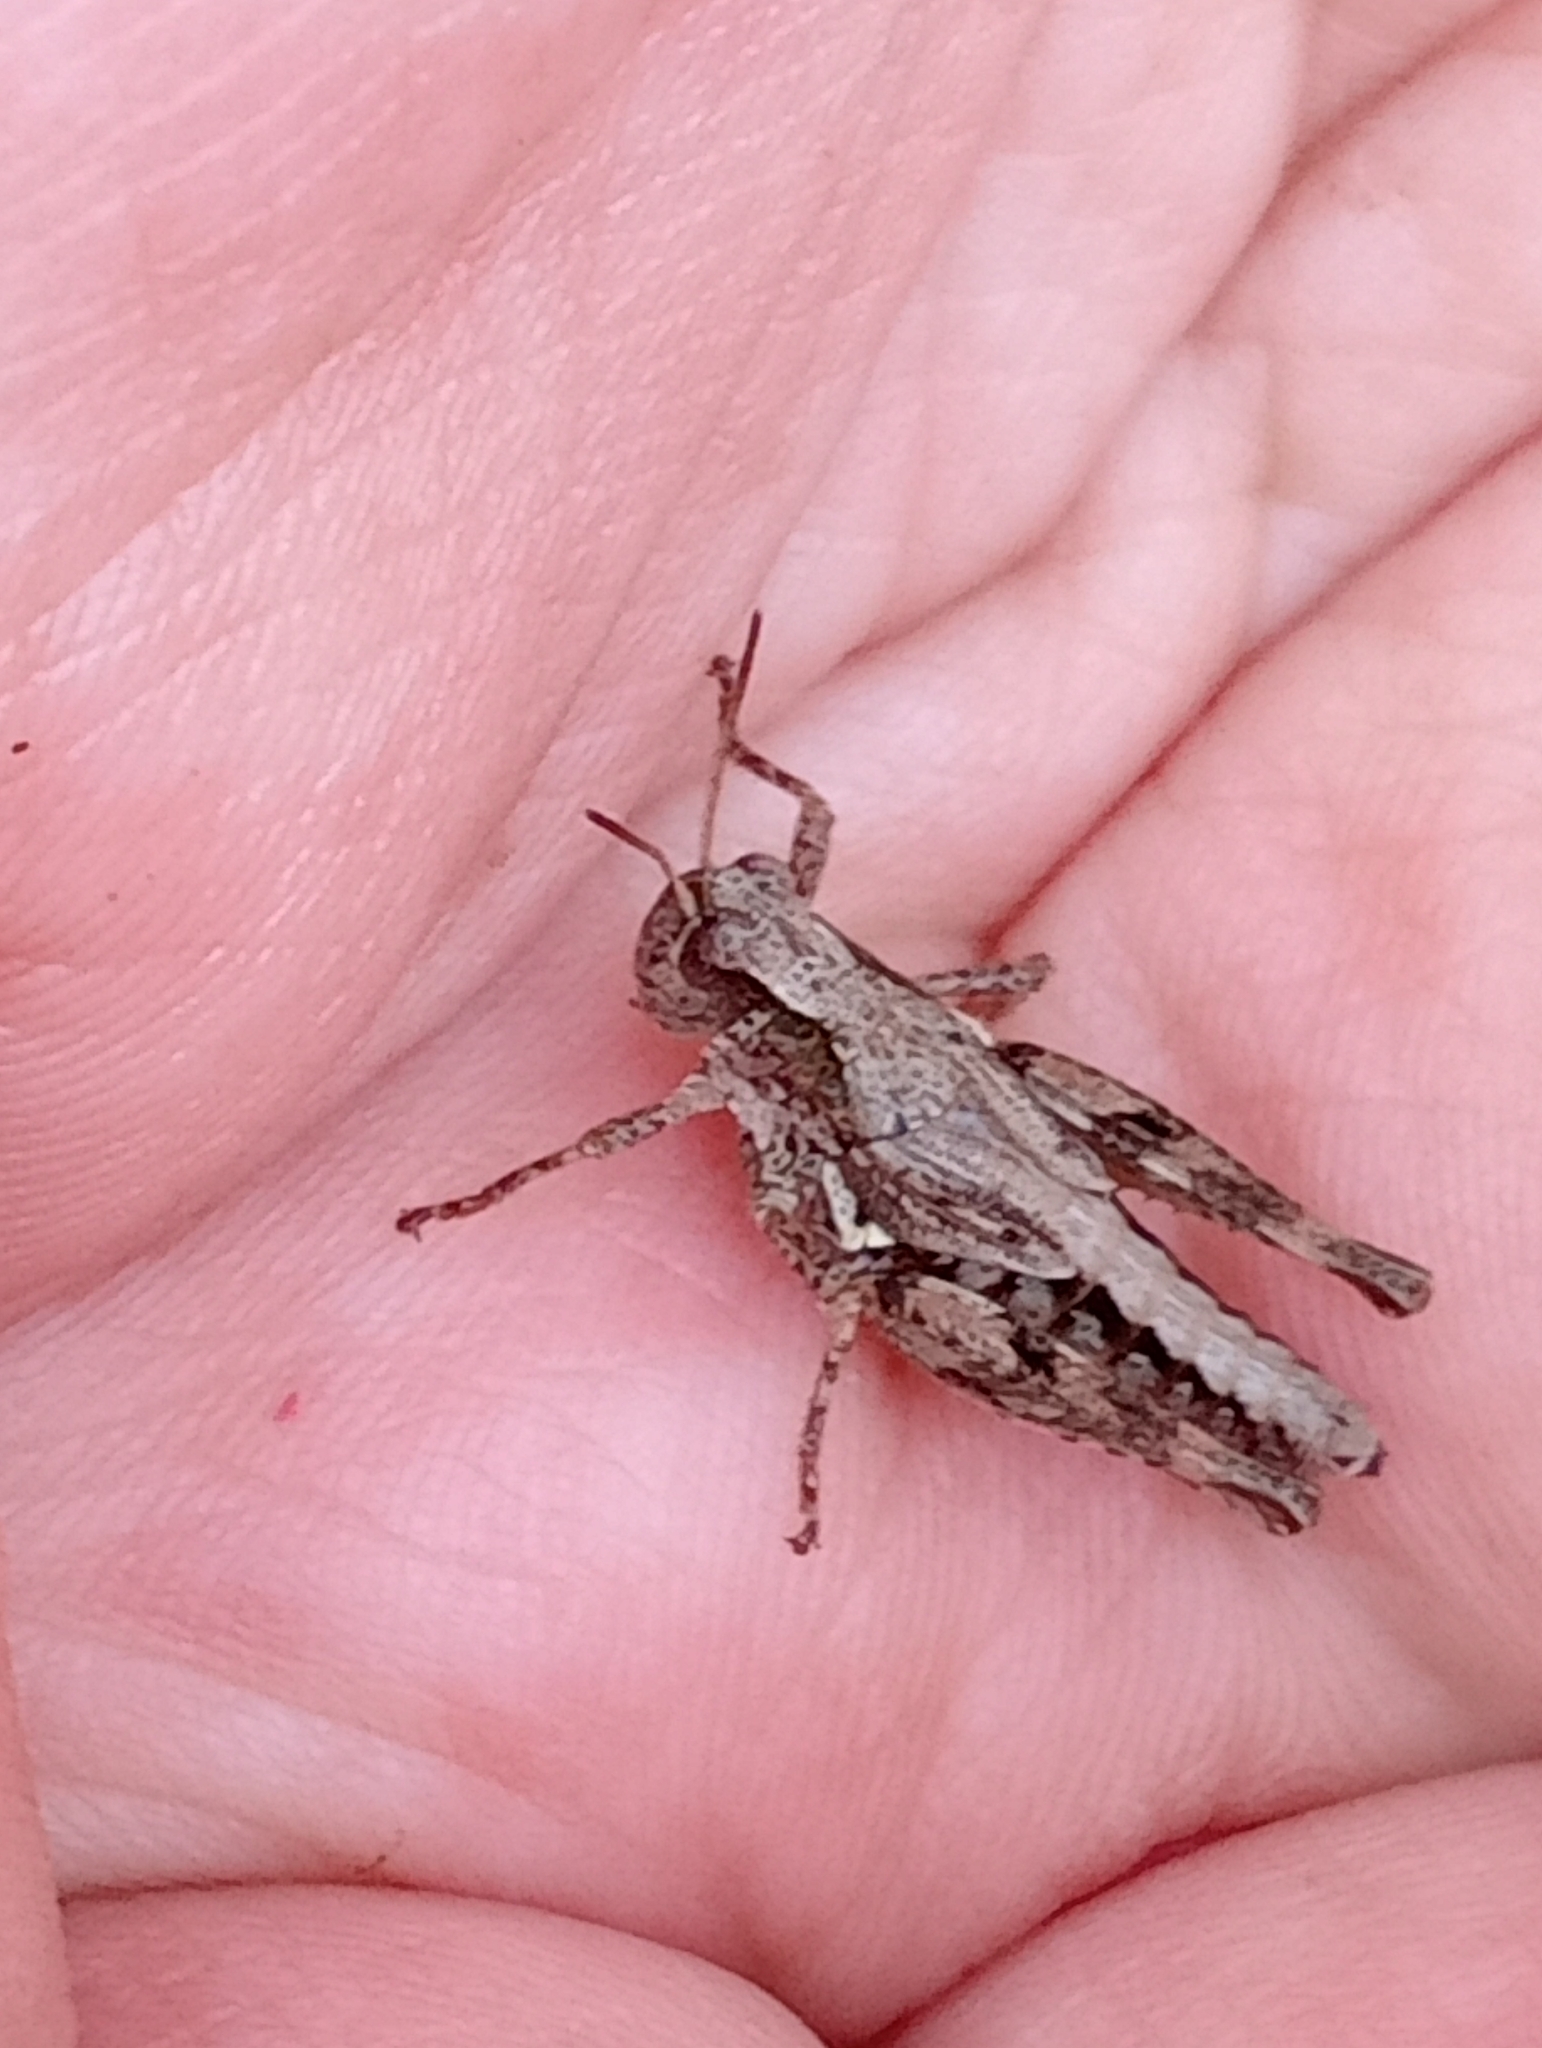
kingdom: Animalia
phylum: Arthropoda
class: Insecta
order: Orthoptera
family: Acrididae
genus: Phaulacridium
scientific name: Phaulacridium marginale
